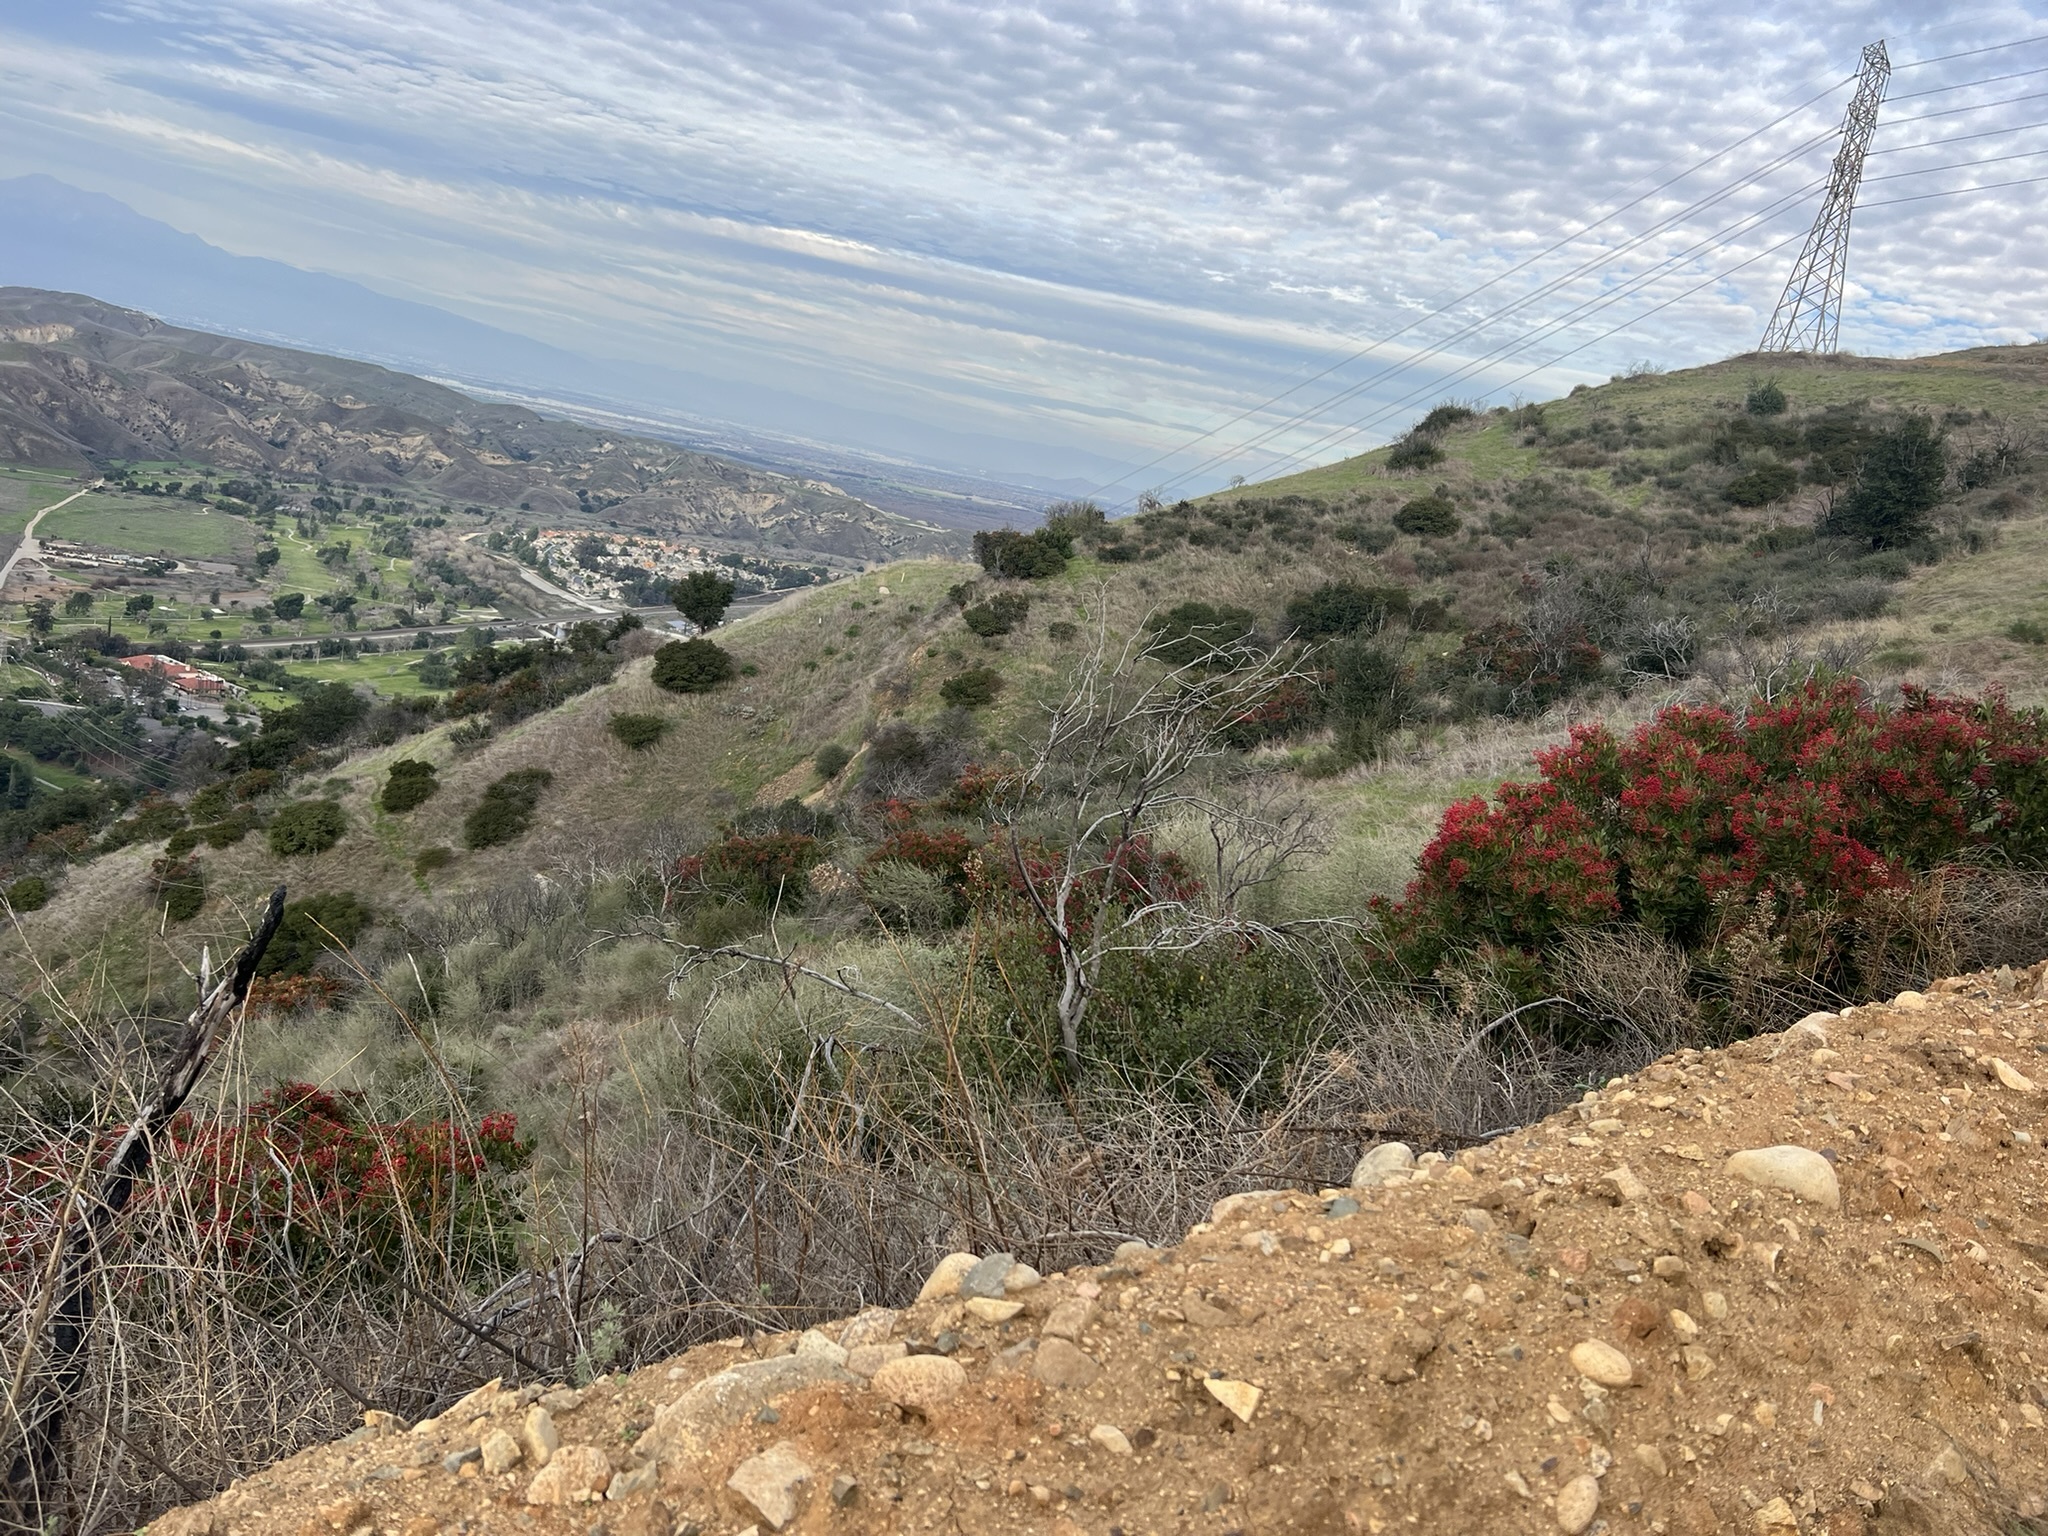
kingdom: Plantae
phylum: Tracheophyta
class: Magnoliopsida
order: Rosales
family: Rosaceae
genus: Heteromeles
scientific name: Heteromeles arbutifolia
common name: California-holly
